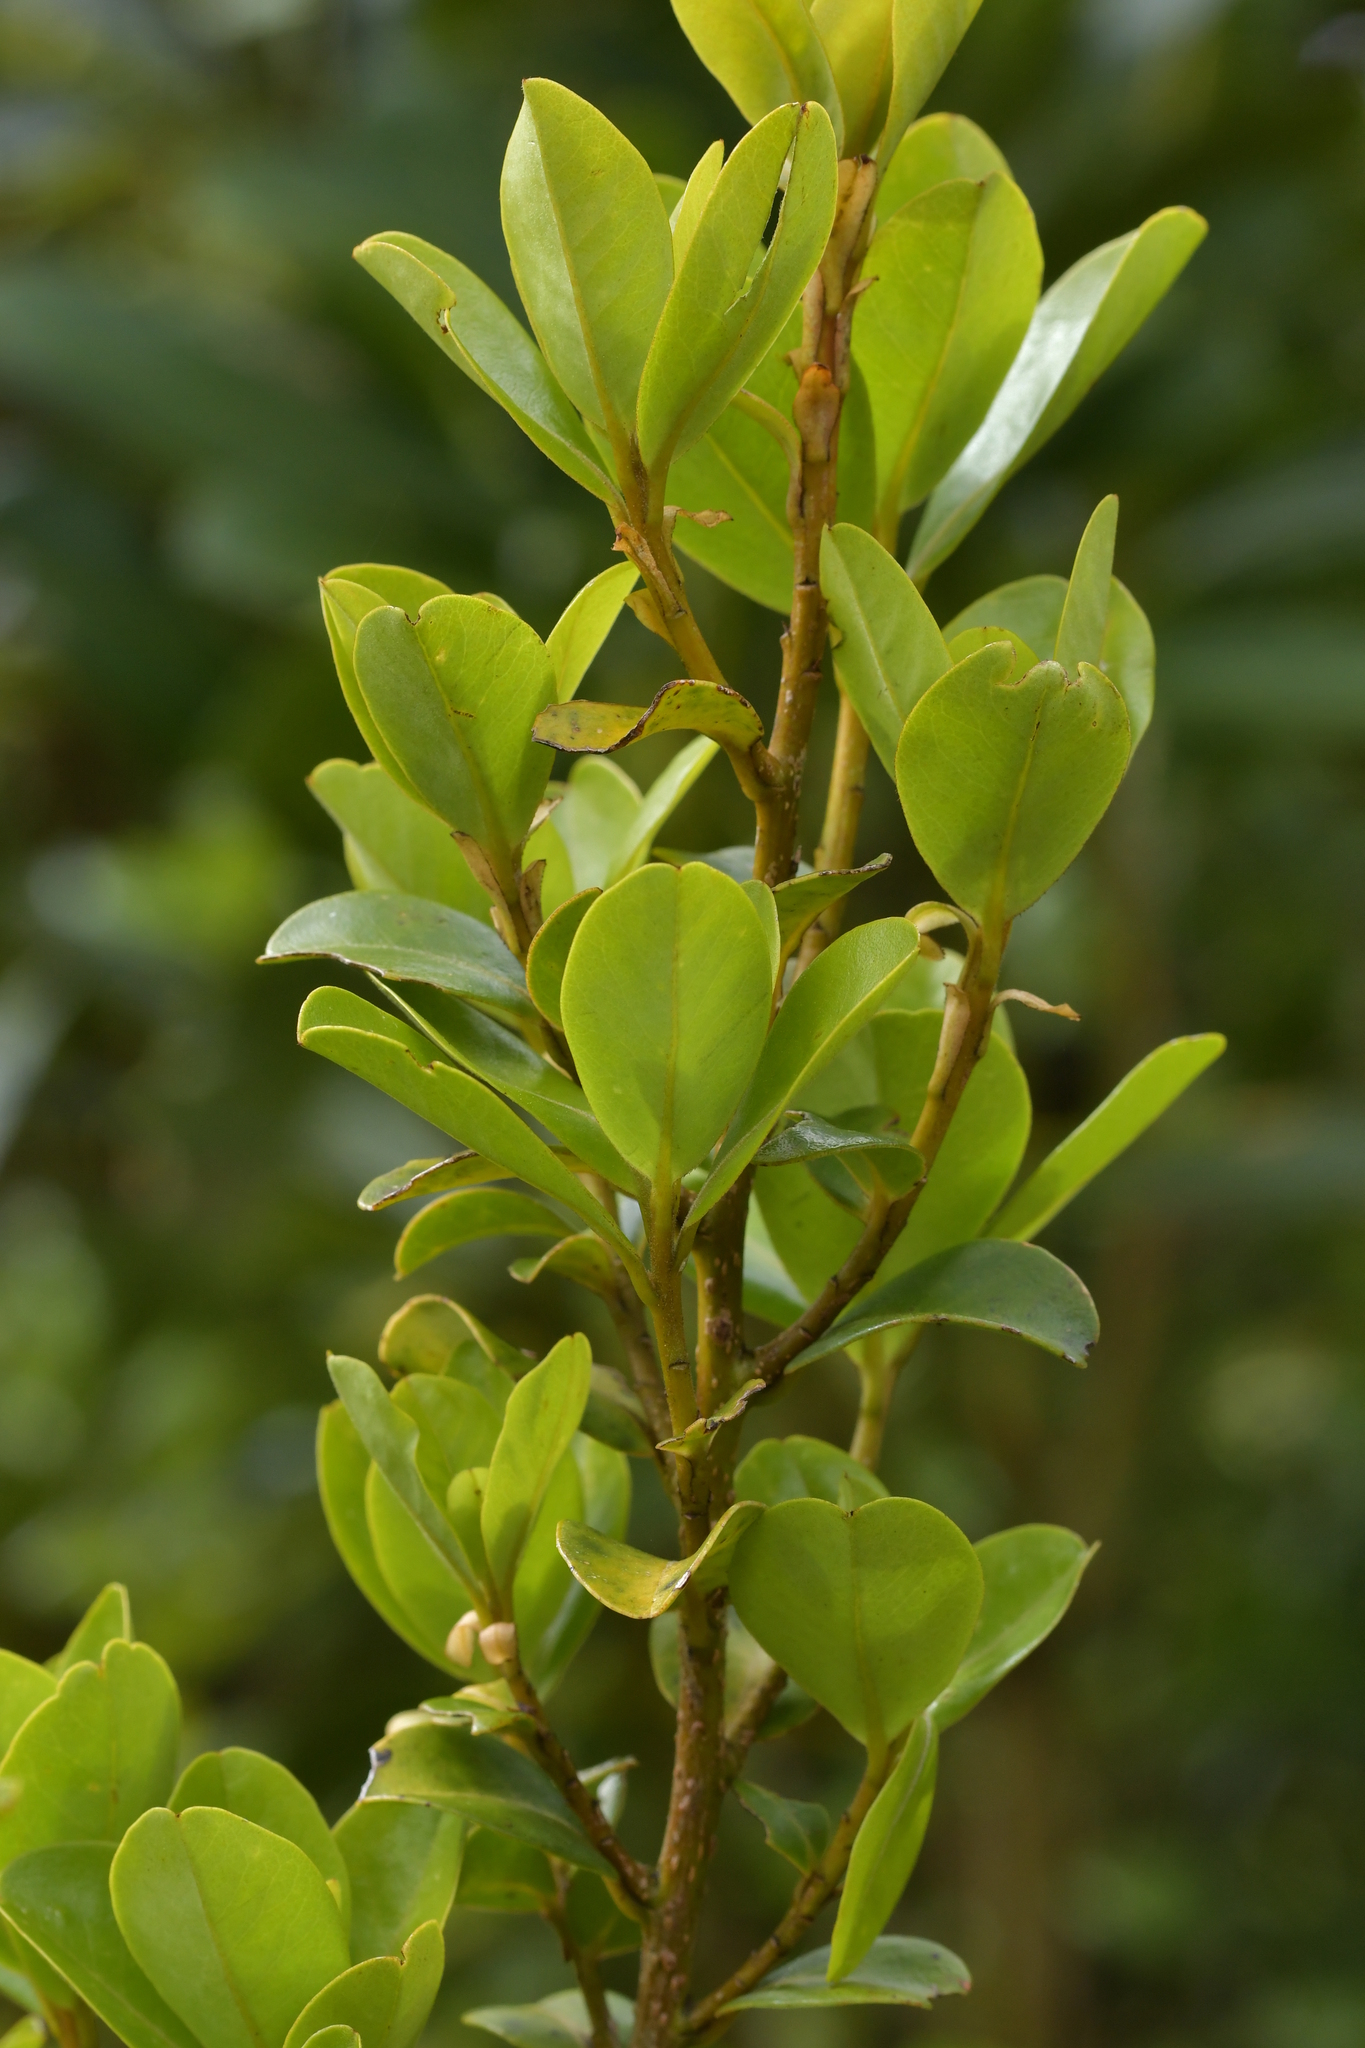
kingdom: Plantae
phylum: Tracheophyta
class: Magnoliopsida
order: Ericales
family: Primulaceae
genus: Myrsine
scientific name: Myrsine chathamica
